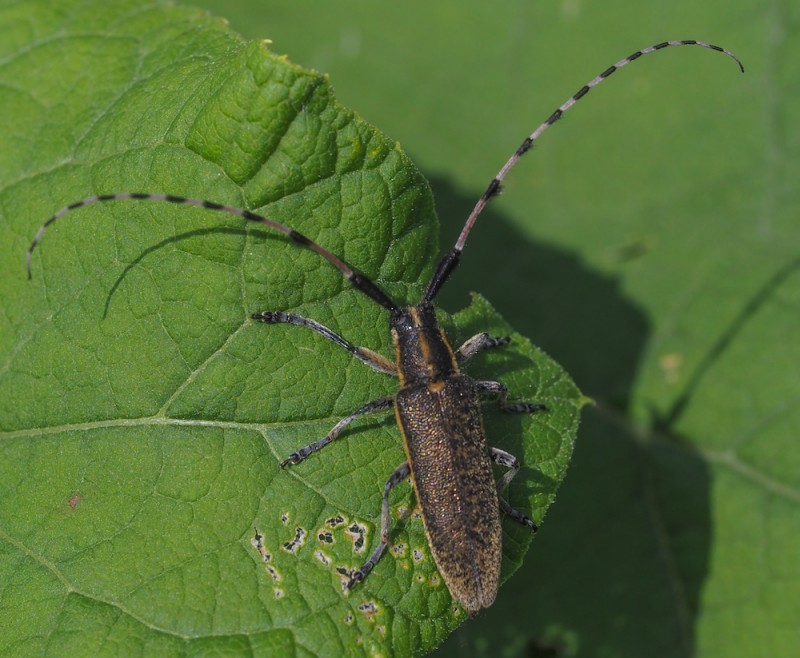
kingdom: Animalia
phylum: Arthropoda
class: Insecta
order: Coleoptera
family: Cerambycidae
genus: Agapanthia
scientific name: Agapanthia dahlii
